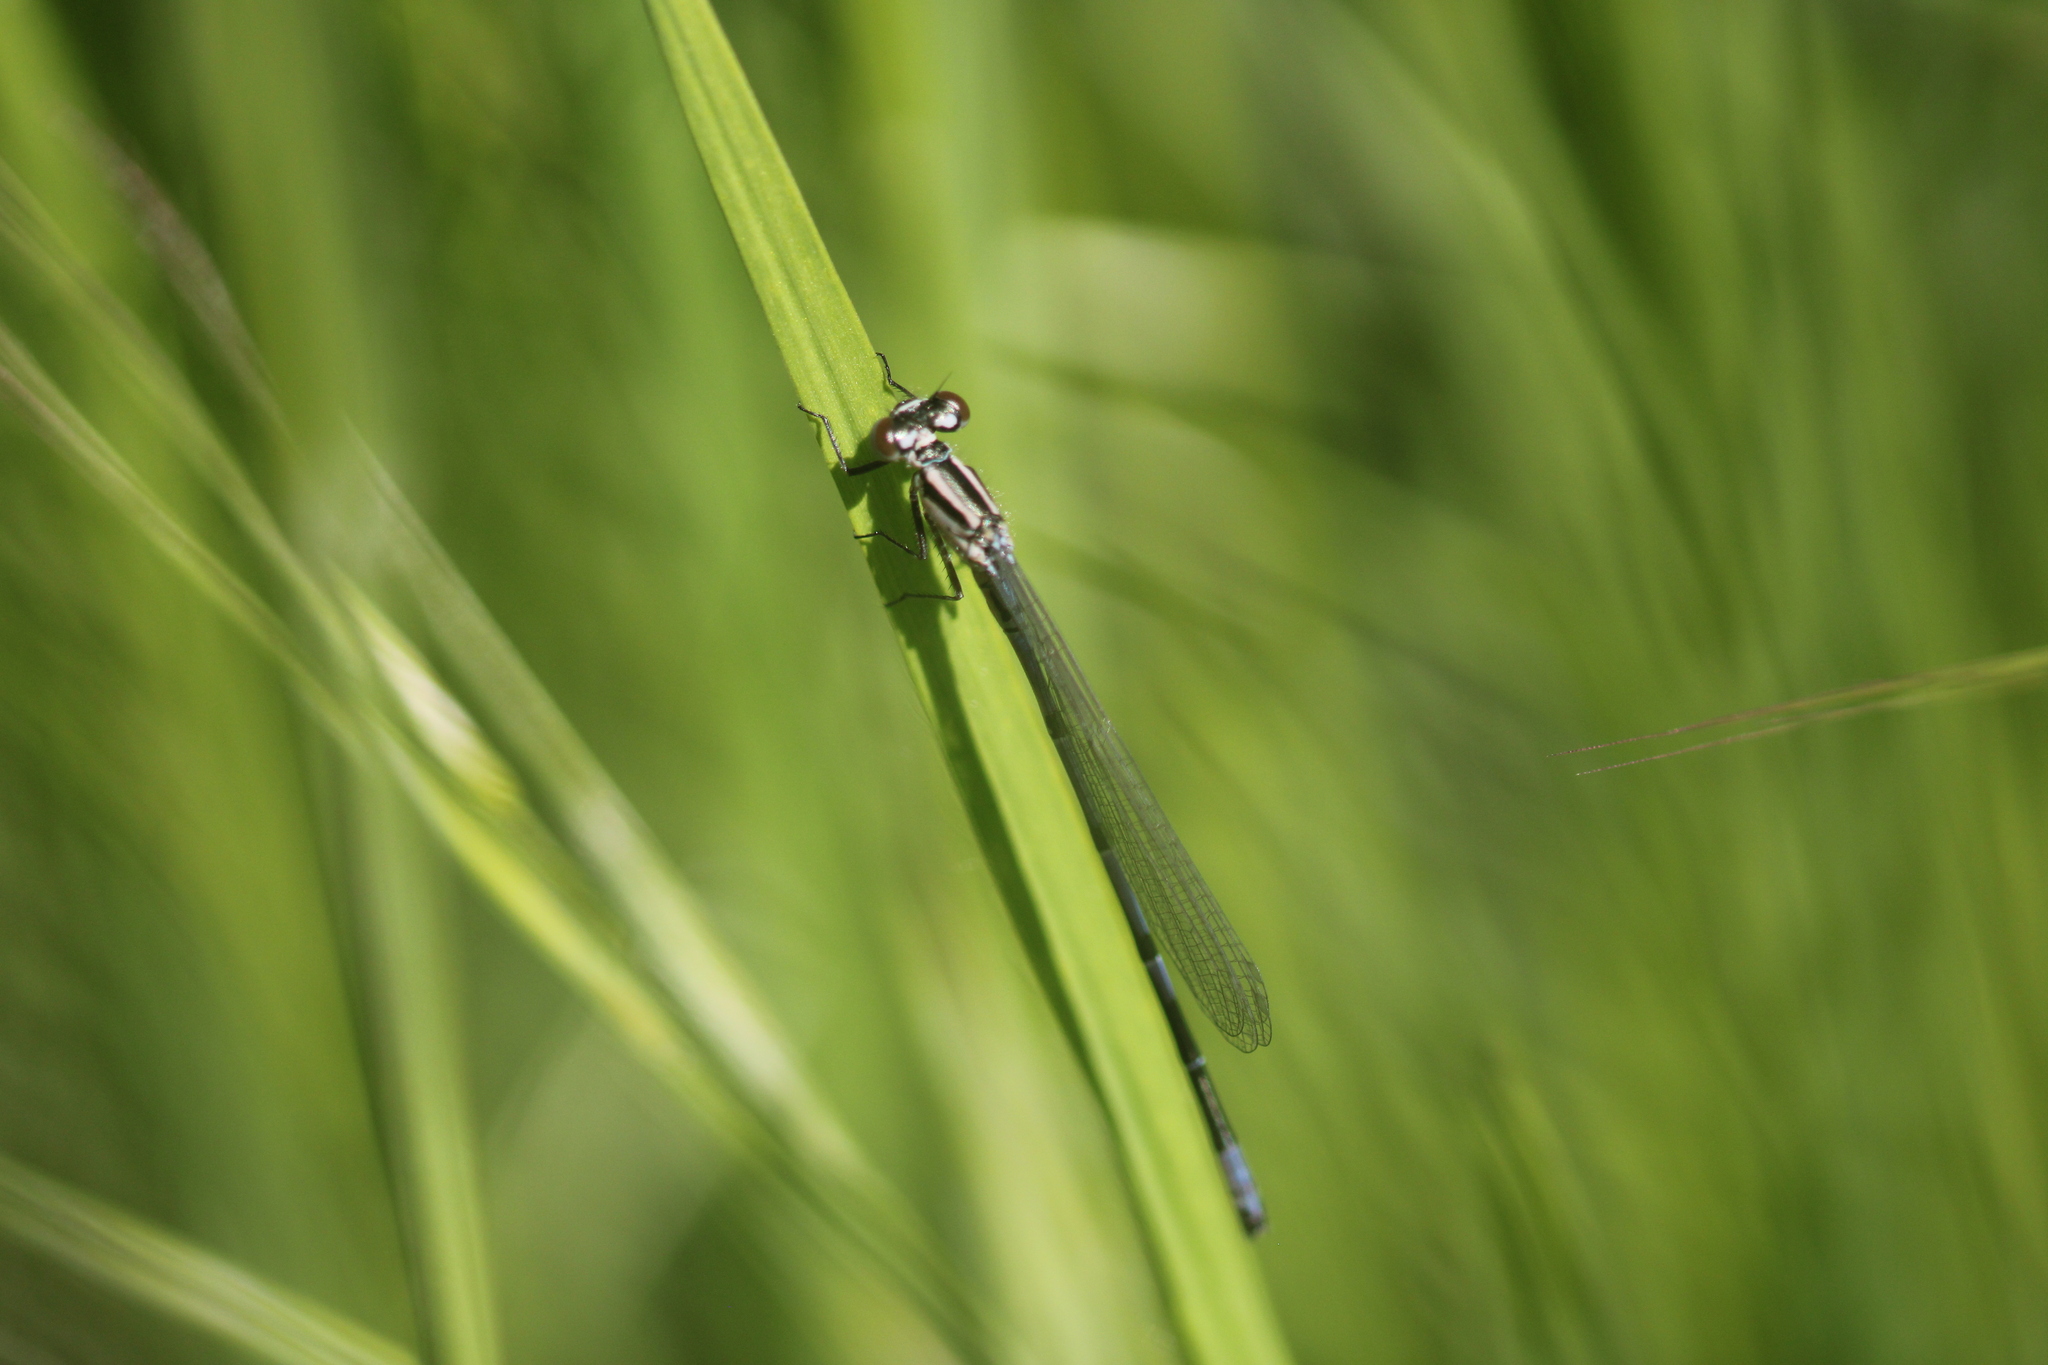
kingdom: Animalia
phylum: Arthropoda
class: Insecta
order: Odonata
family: Coenagrionidae
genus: Coenagrion
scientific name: Coenagrion puella
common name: Azure damselfly
